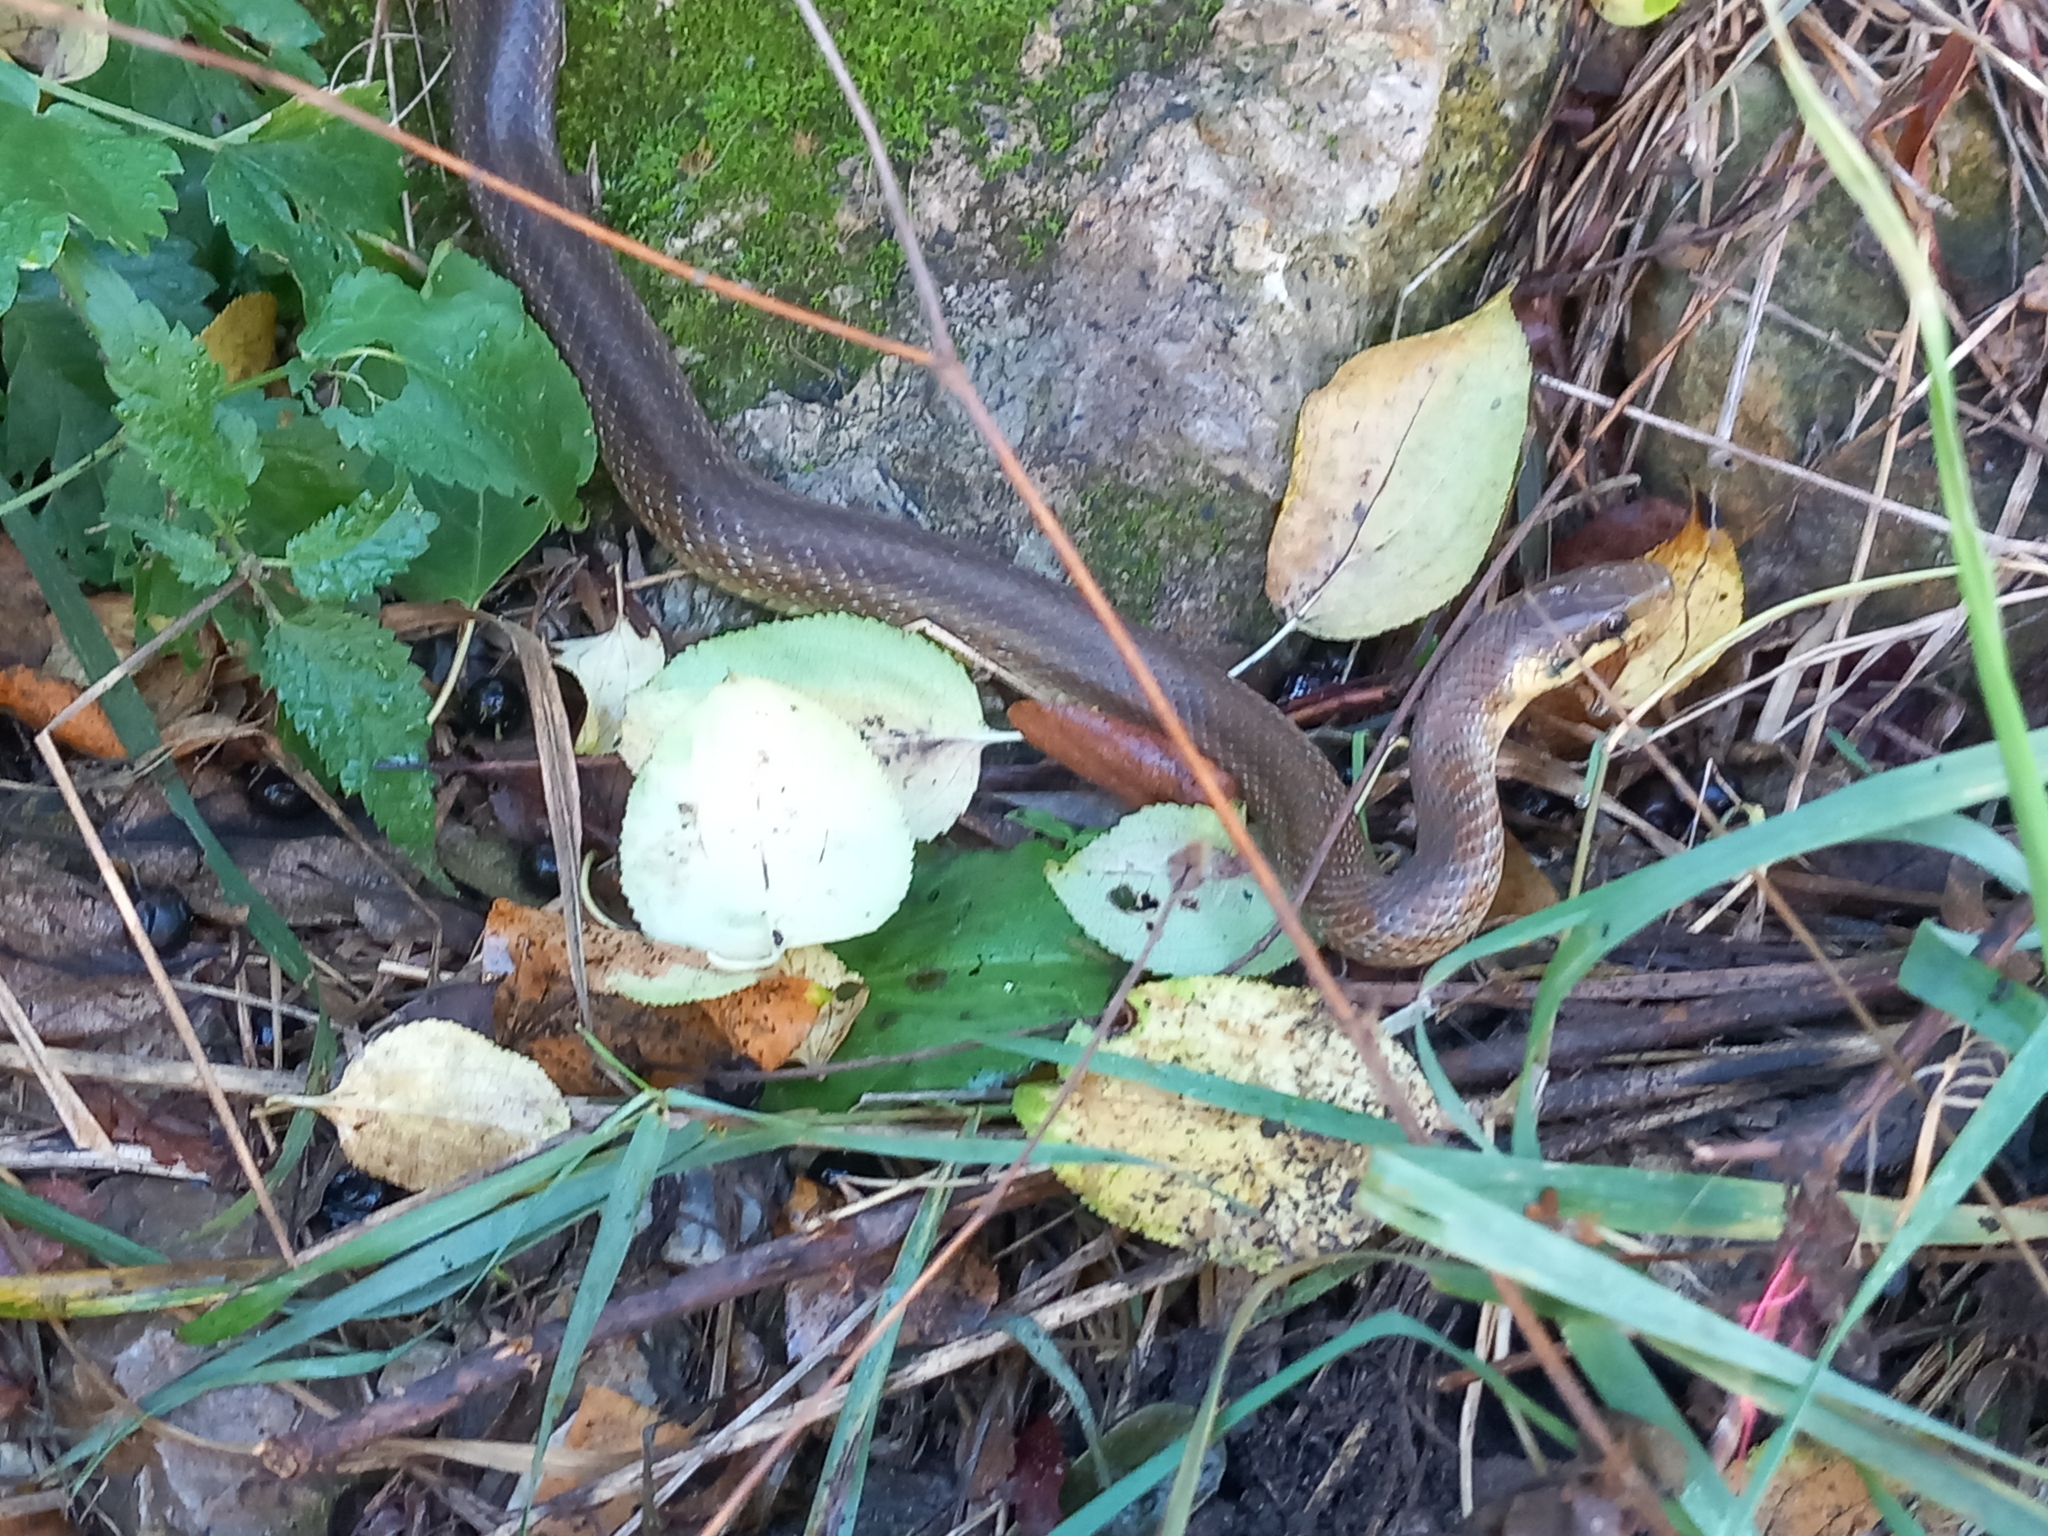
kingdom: Animalia
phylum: Chordata
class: Squamata
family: Colubridae
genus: Zamenis
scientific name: Zamenis longissimus
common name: Aesculapean snake
